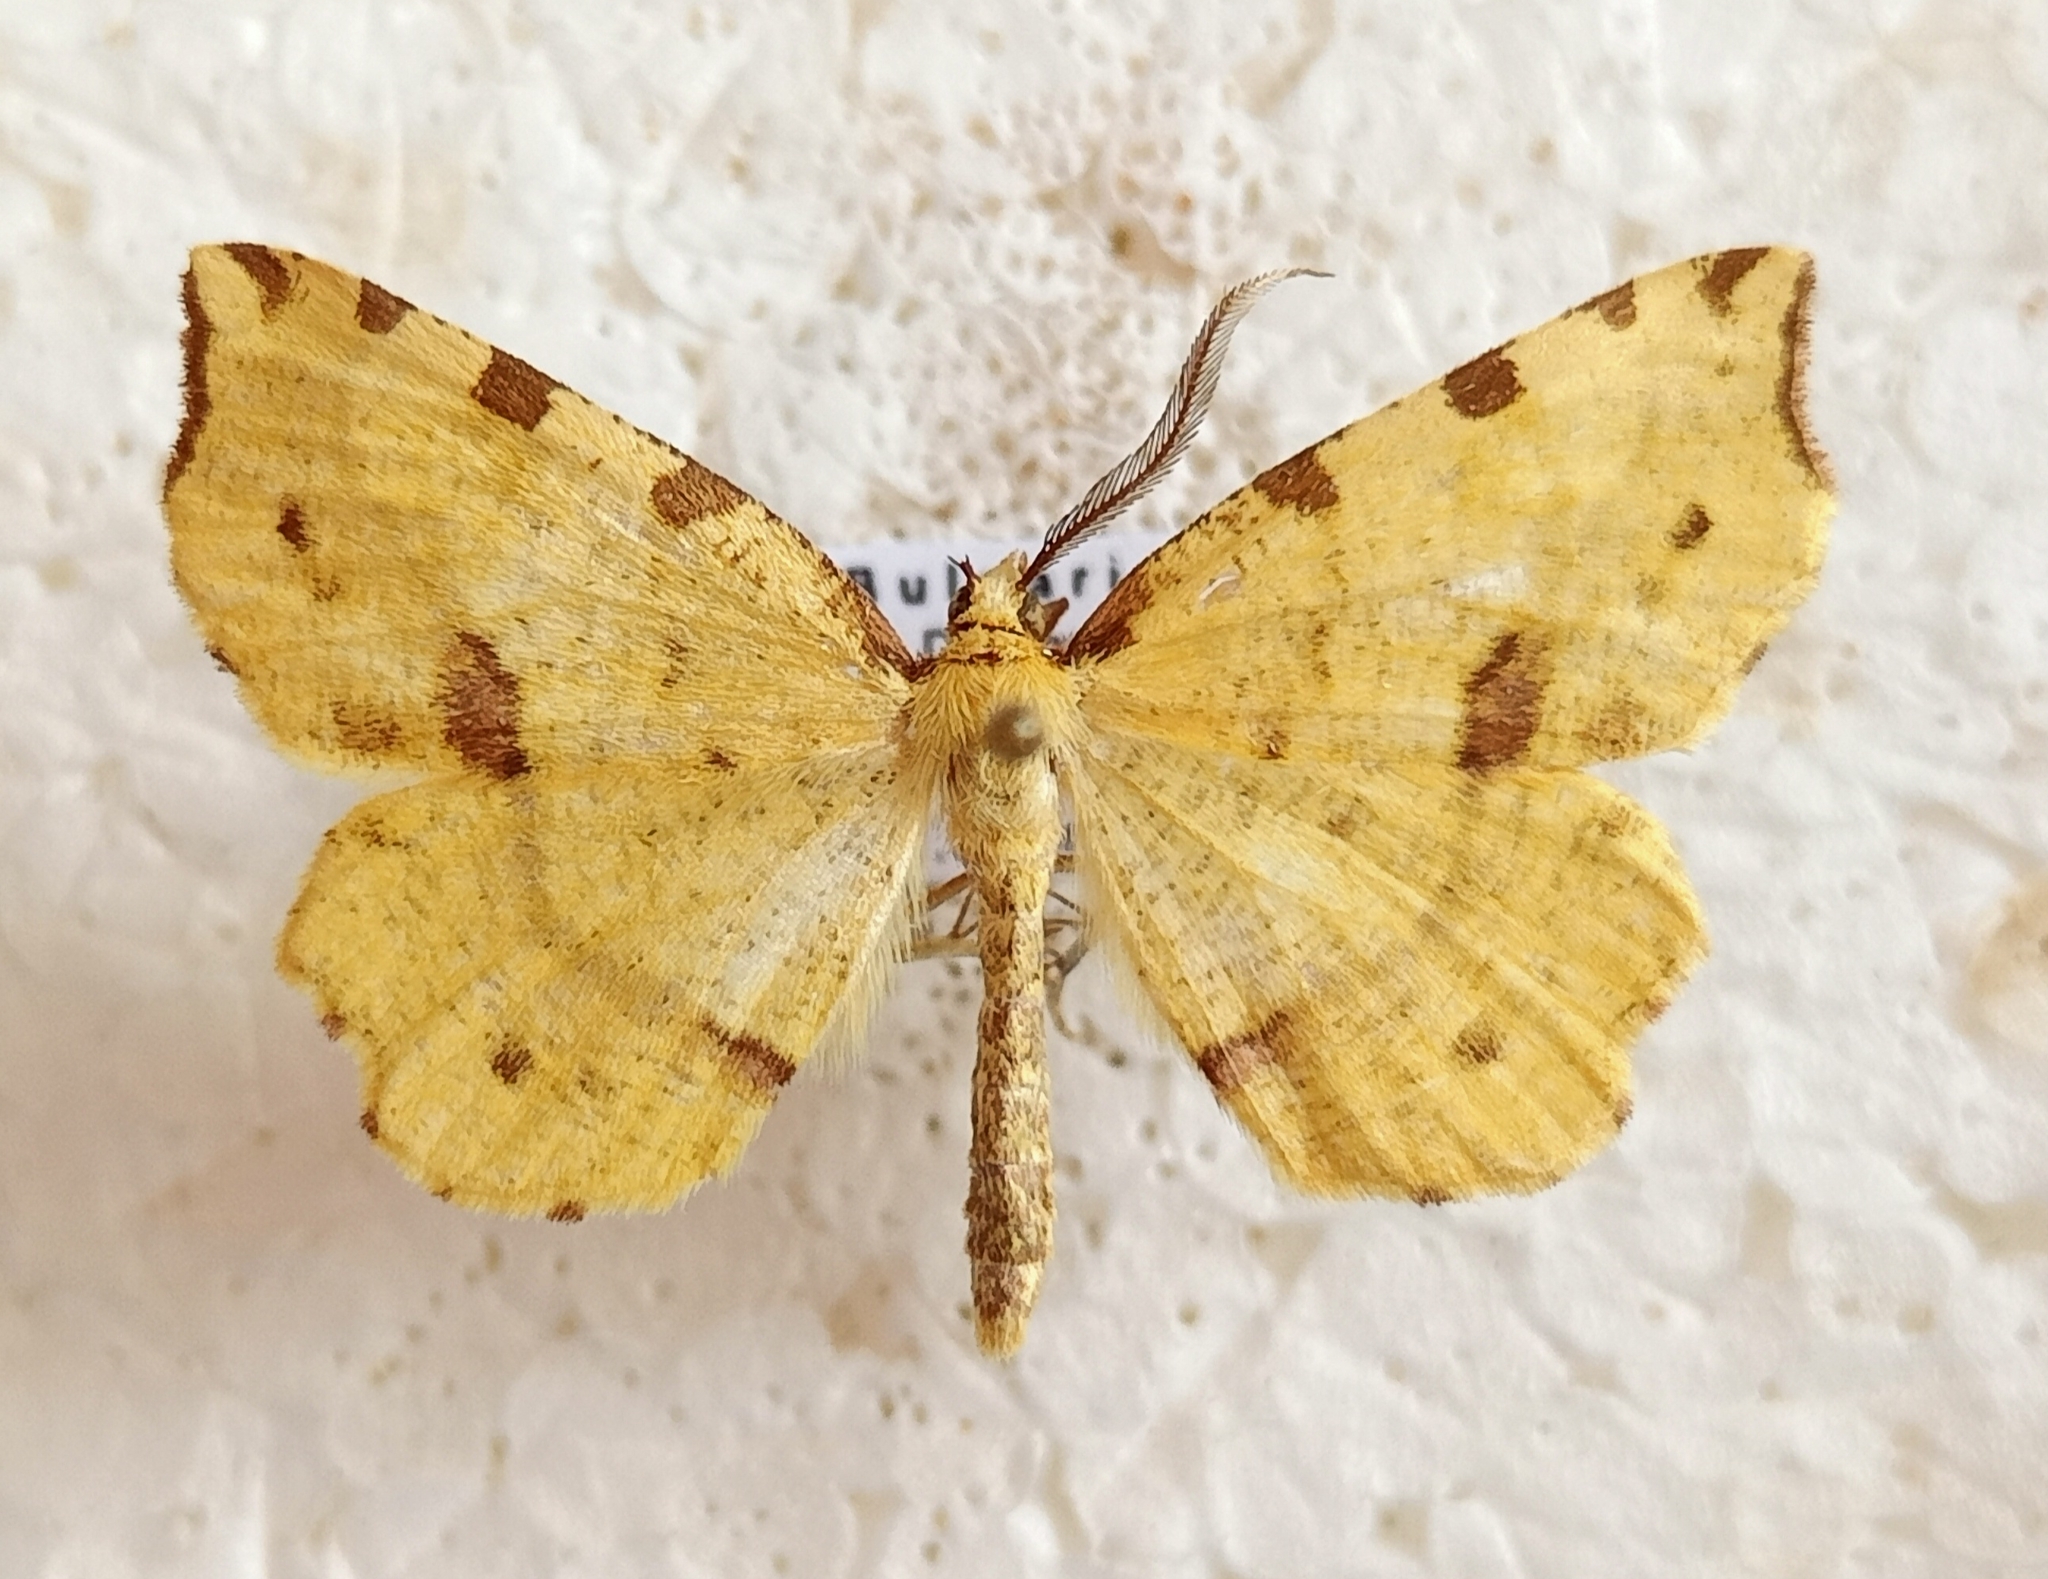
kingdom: Animalia
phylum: Arthropoda
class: Insecta
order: Lepidoptera
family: Geometridae
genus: Therapis
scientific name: Therapis flavicaria
